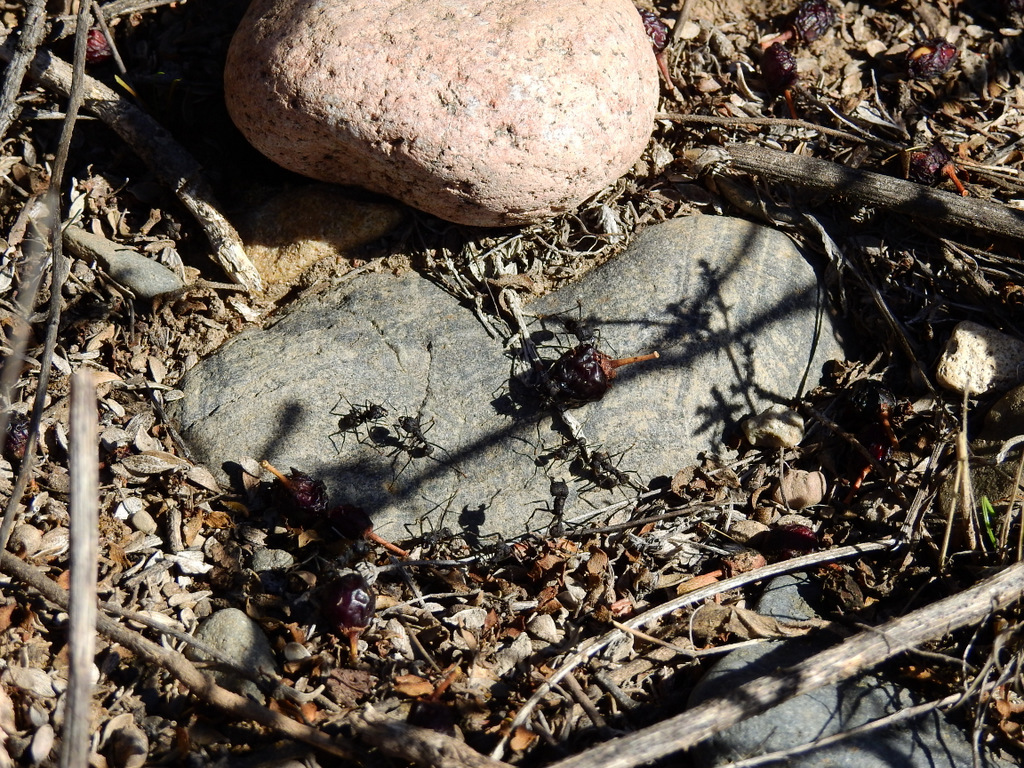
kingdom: Animalia
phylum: Arthropoda
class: Insecta
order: Hymenoptera
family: Formicidae
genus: Acromyrmex
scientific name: Acromyrmex lobicornis
